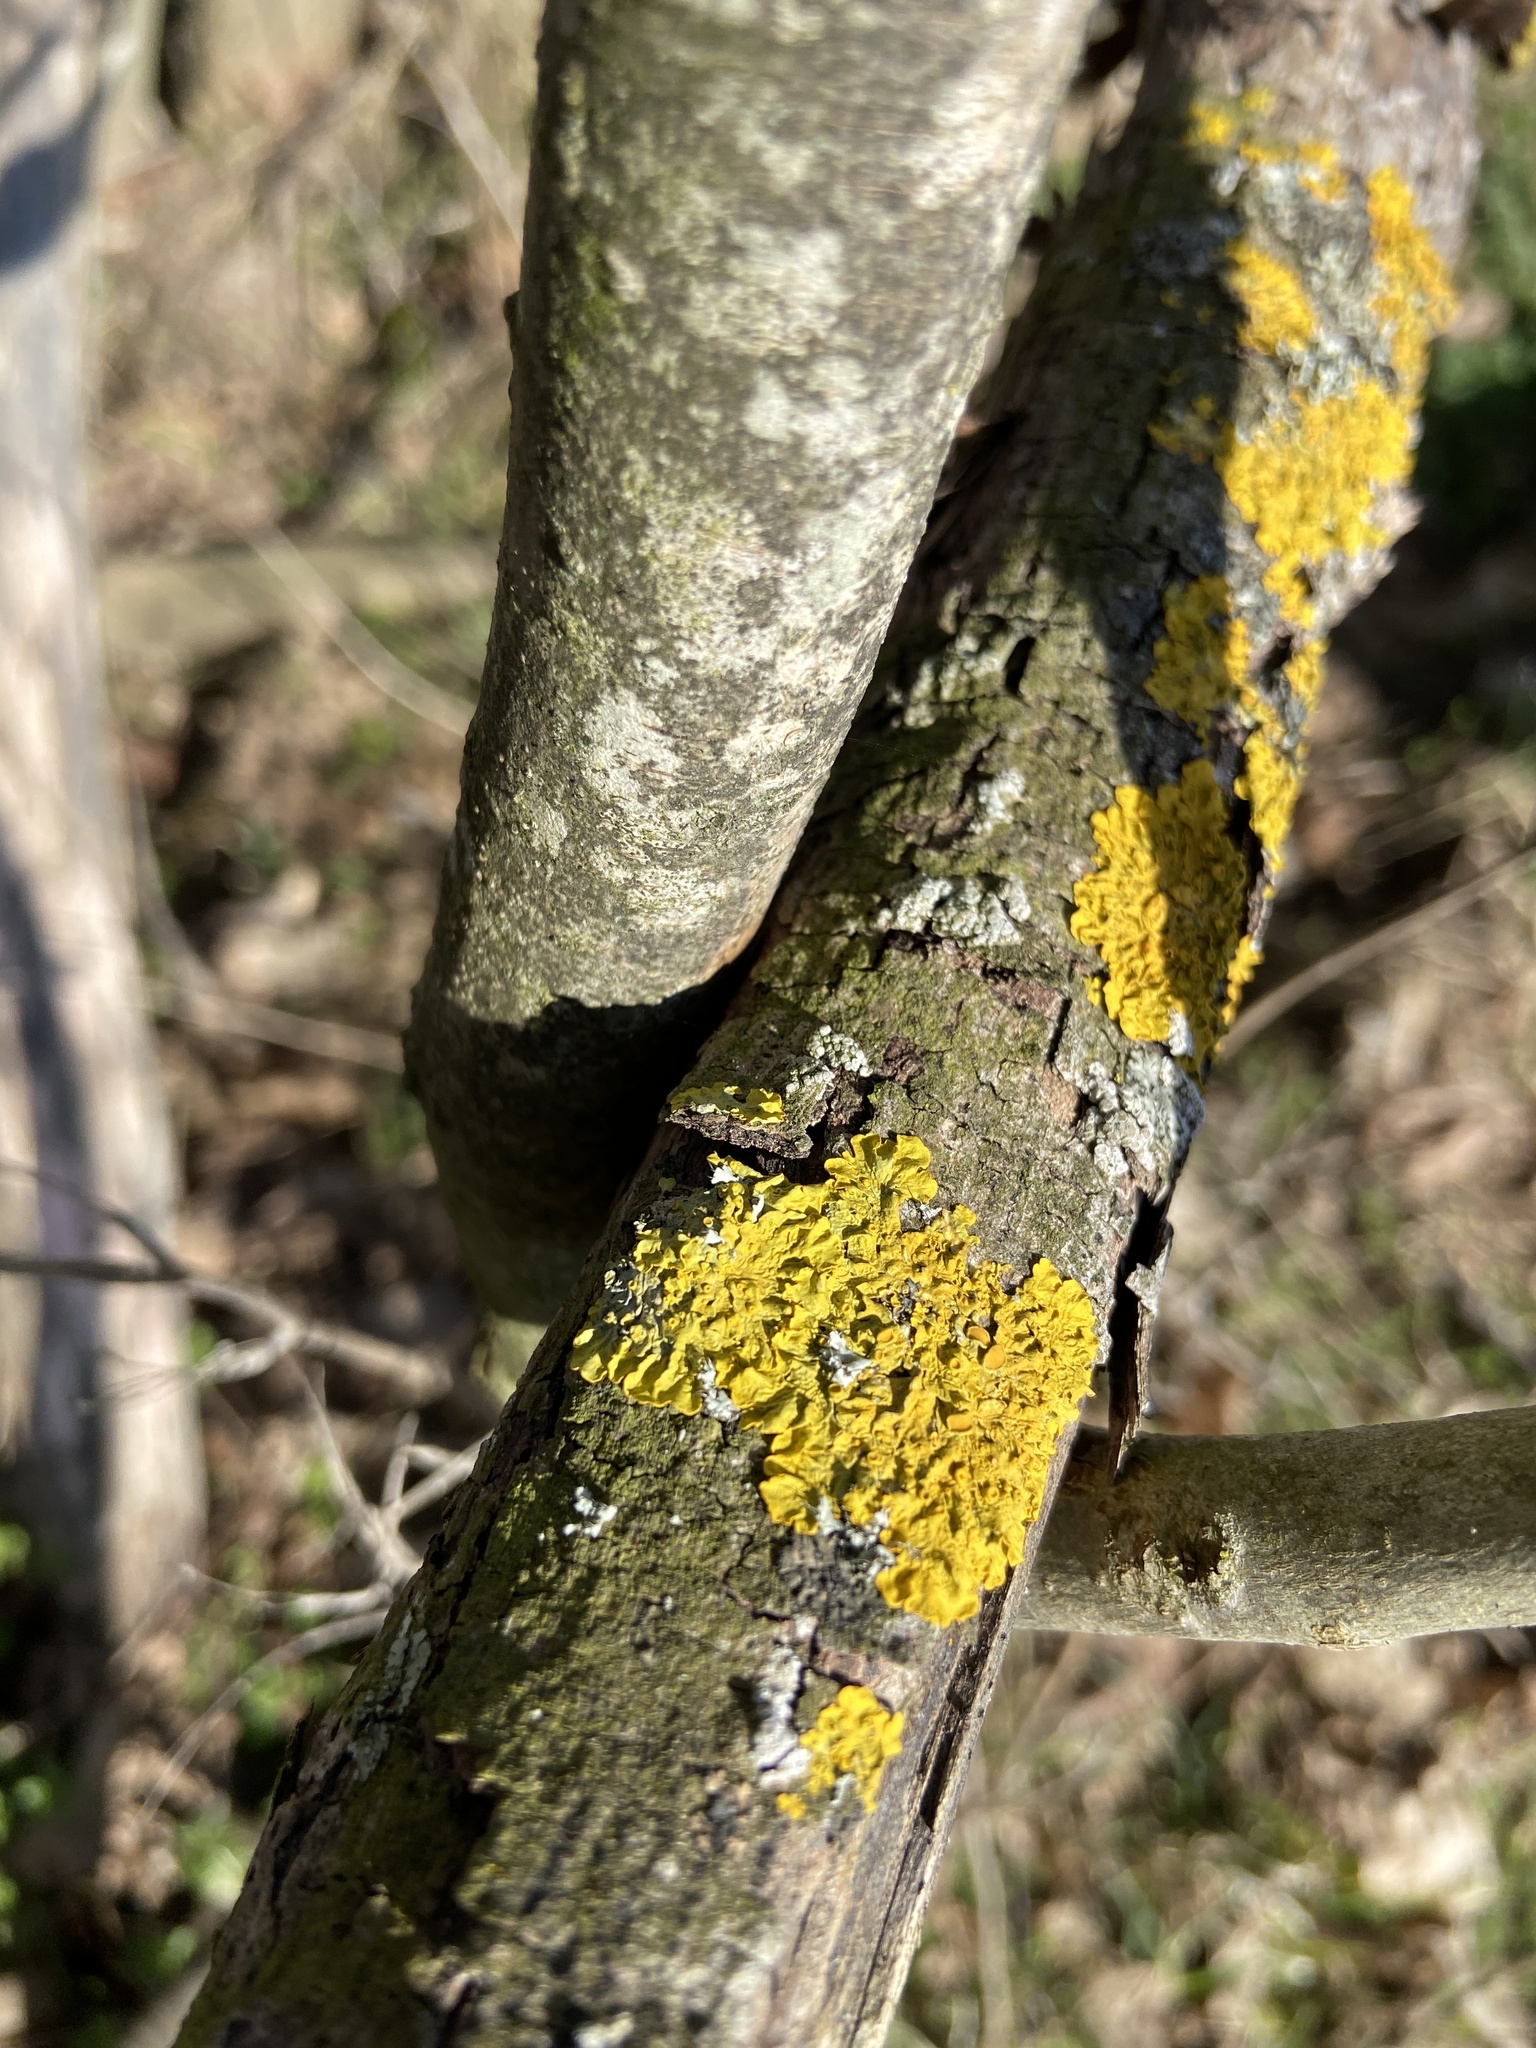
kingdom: Fungi
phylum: Ascomycota
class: Lecanoromycetes
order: Teloschistales
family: Teloschistaceae
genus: Xanthoria
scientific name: Xanthoria parietina
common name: Common orange lichen
